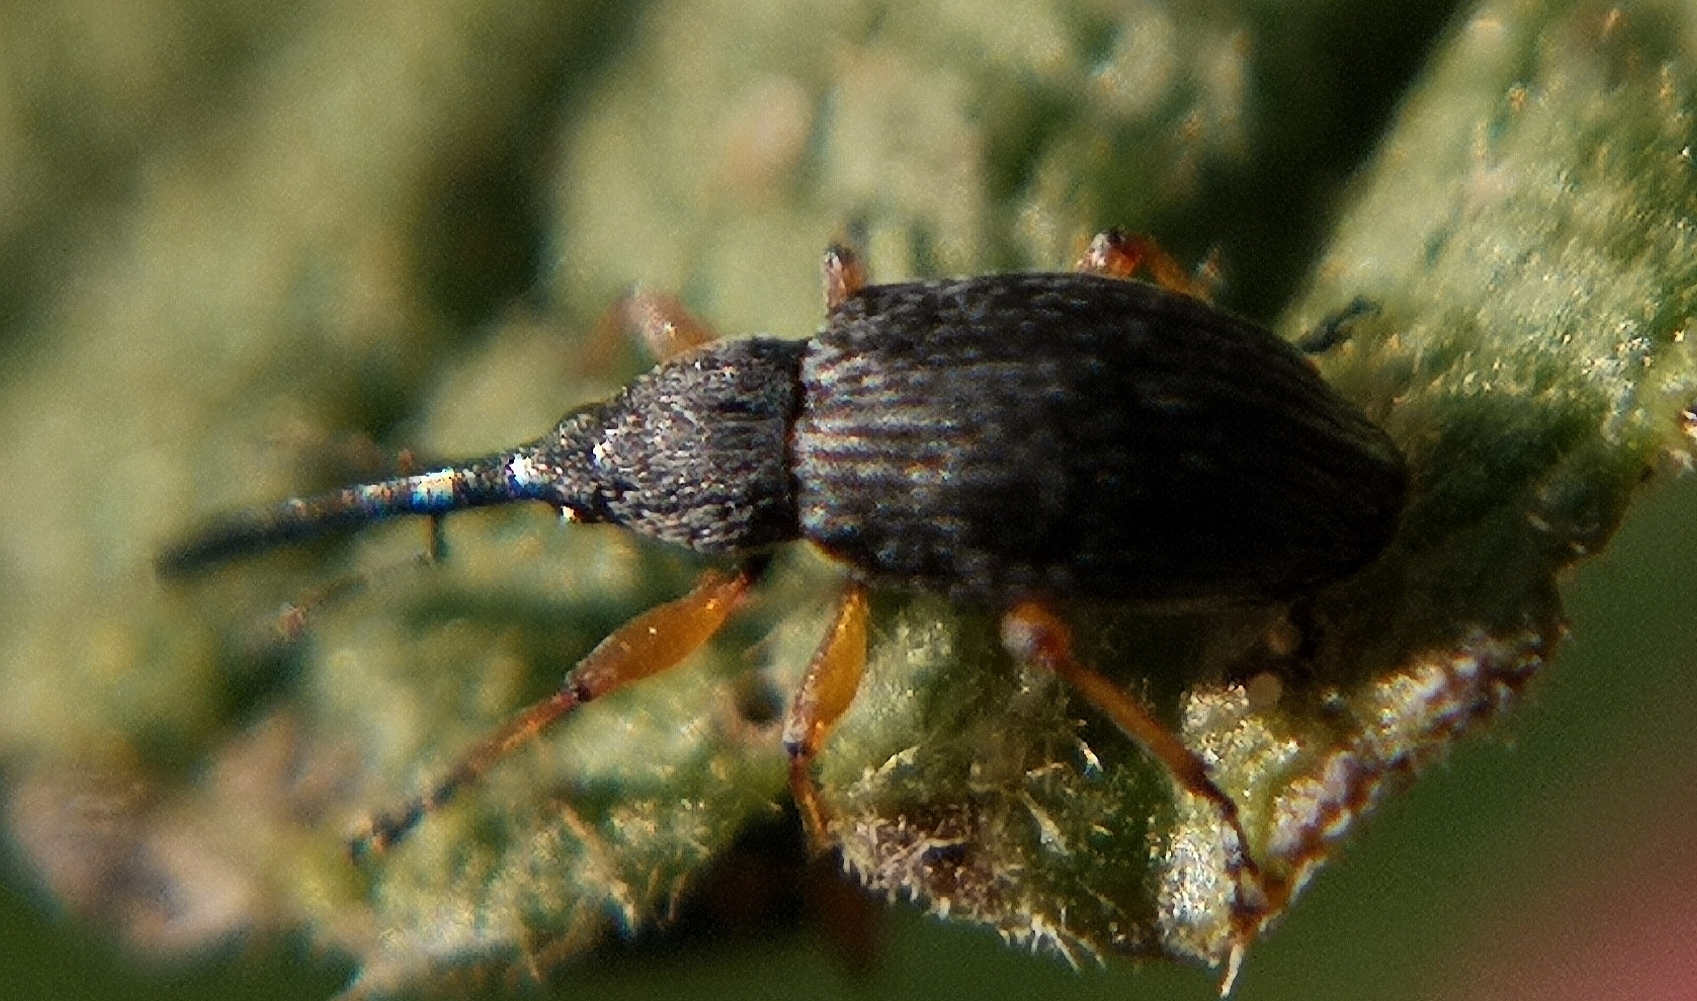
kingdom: Animalia
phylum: Arthropoda
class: Insecta
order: Coleoptera
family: Brentidae
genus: Rhopalapion
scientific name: Rhopalapion longirostre
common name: Hollyhock weevil
